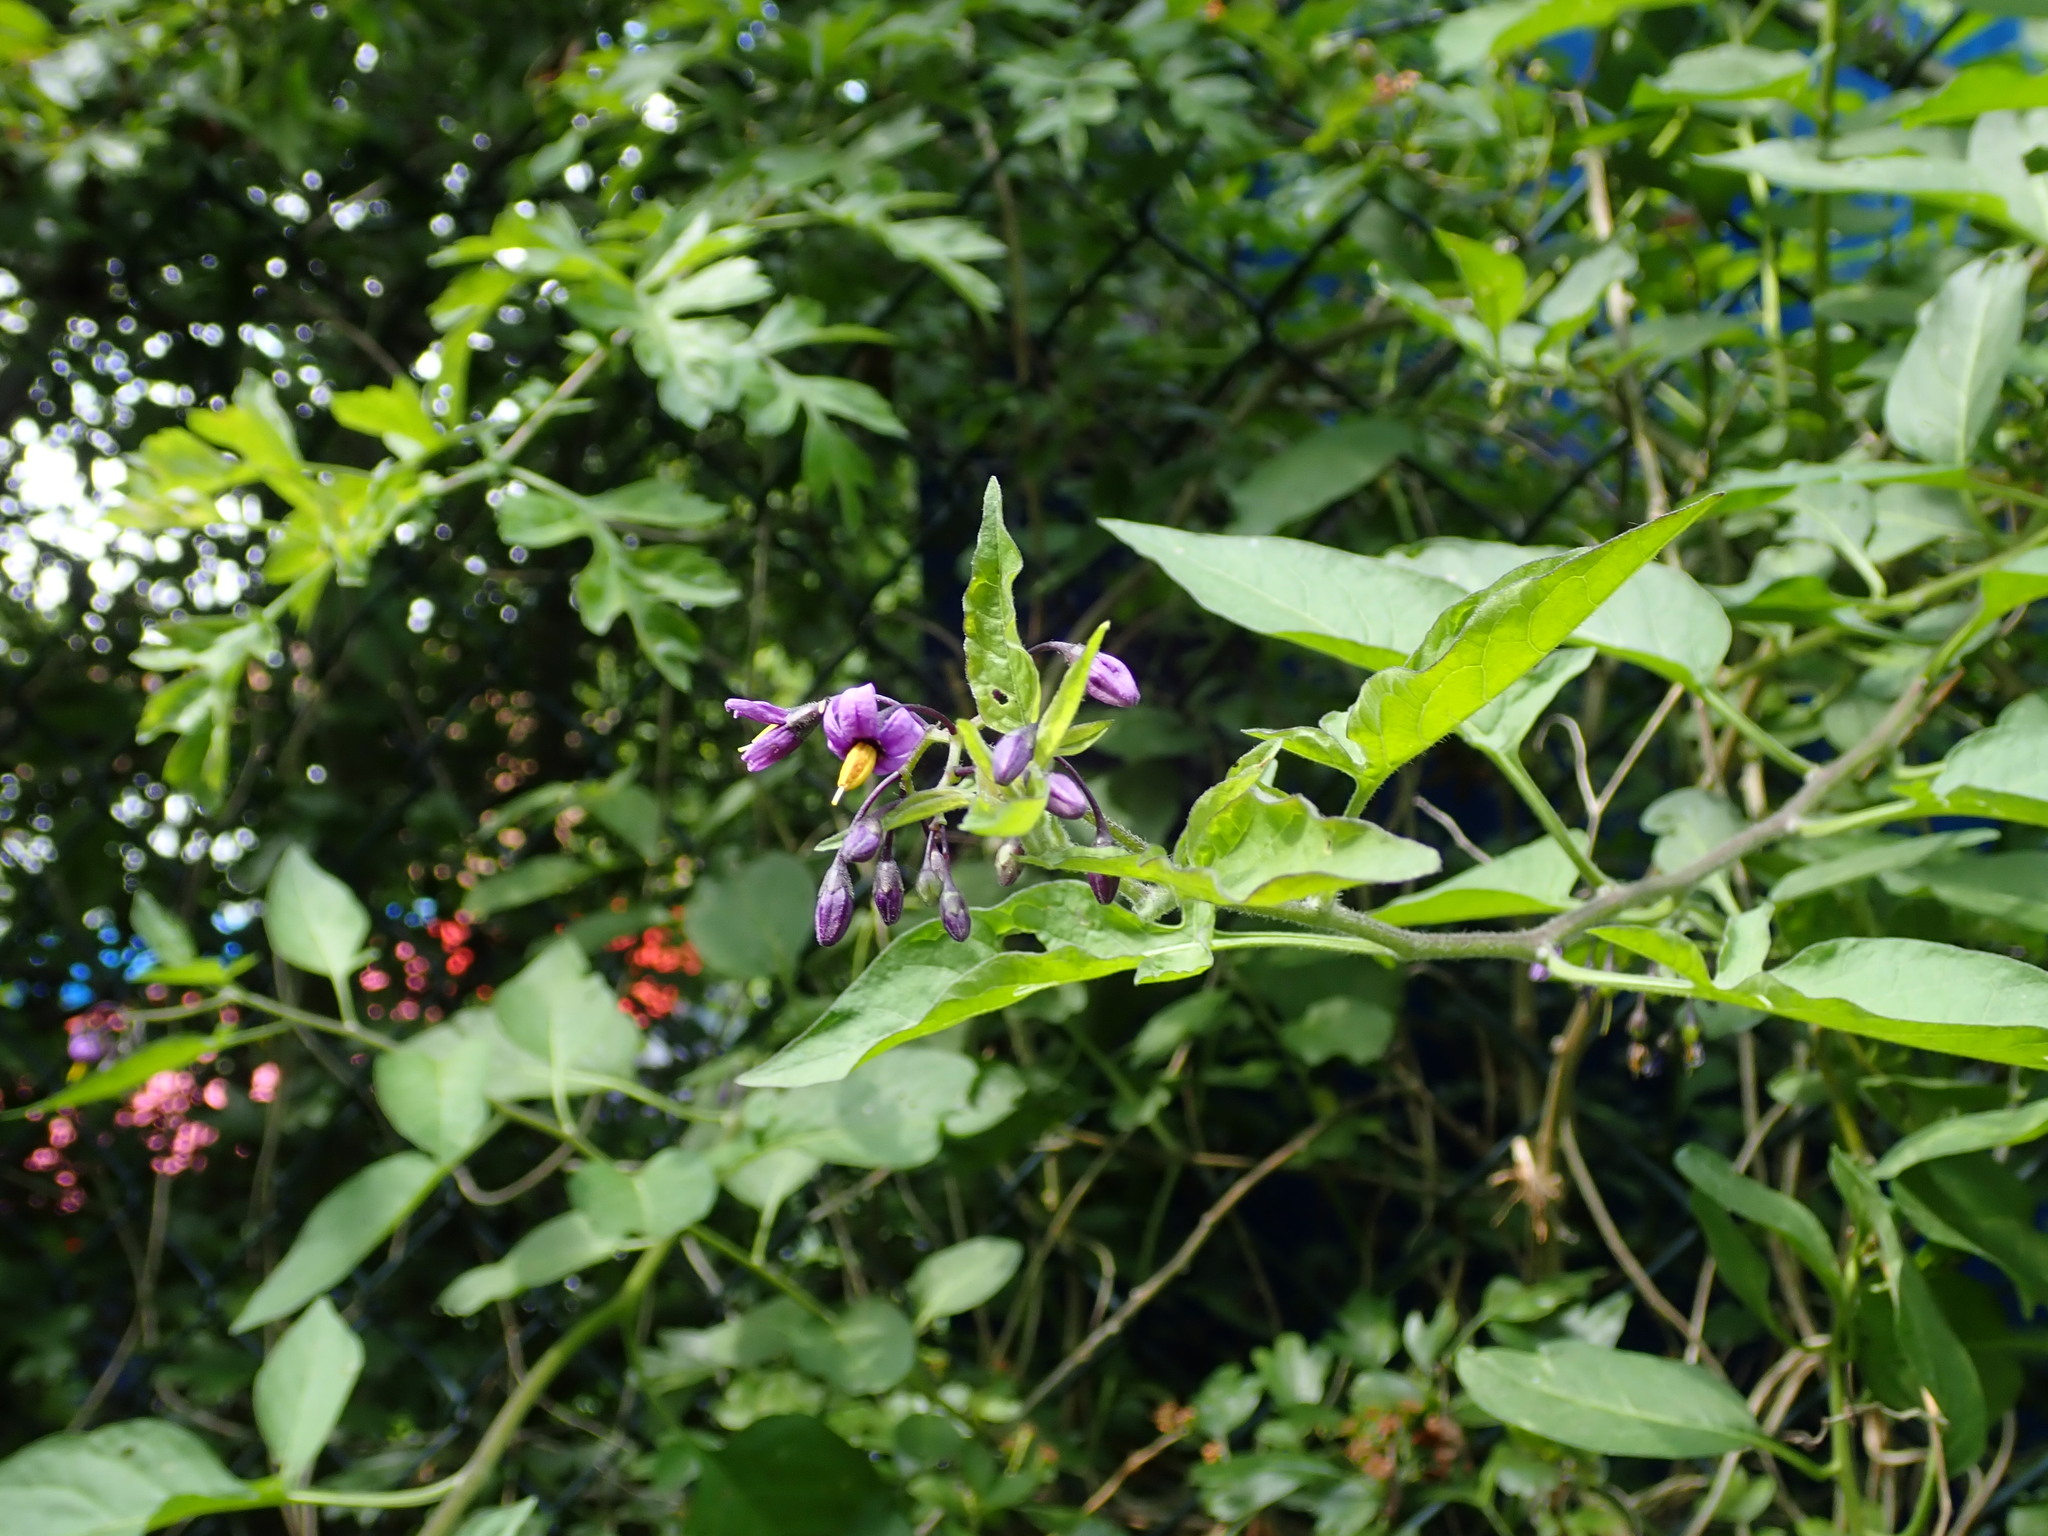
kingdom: Plantae
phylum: Tracheophyta
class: Magnoliopsida
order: Solanales
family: Solanaceae
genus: Solanum
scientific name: Solanum dulcamara
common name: Climbing nightshade
